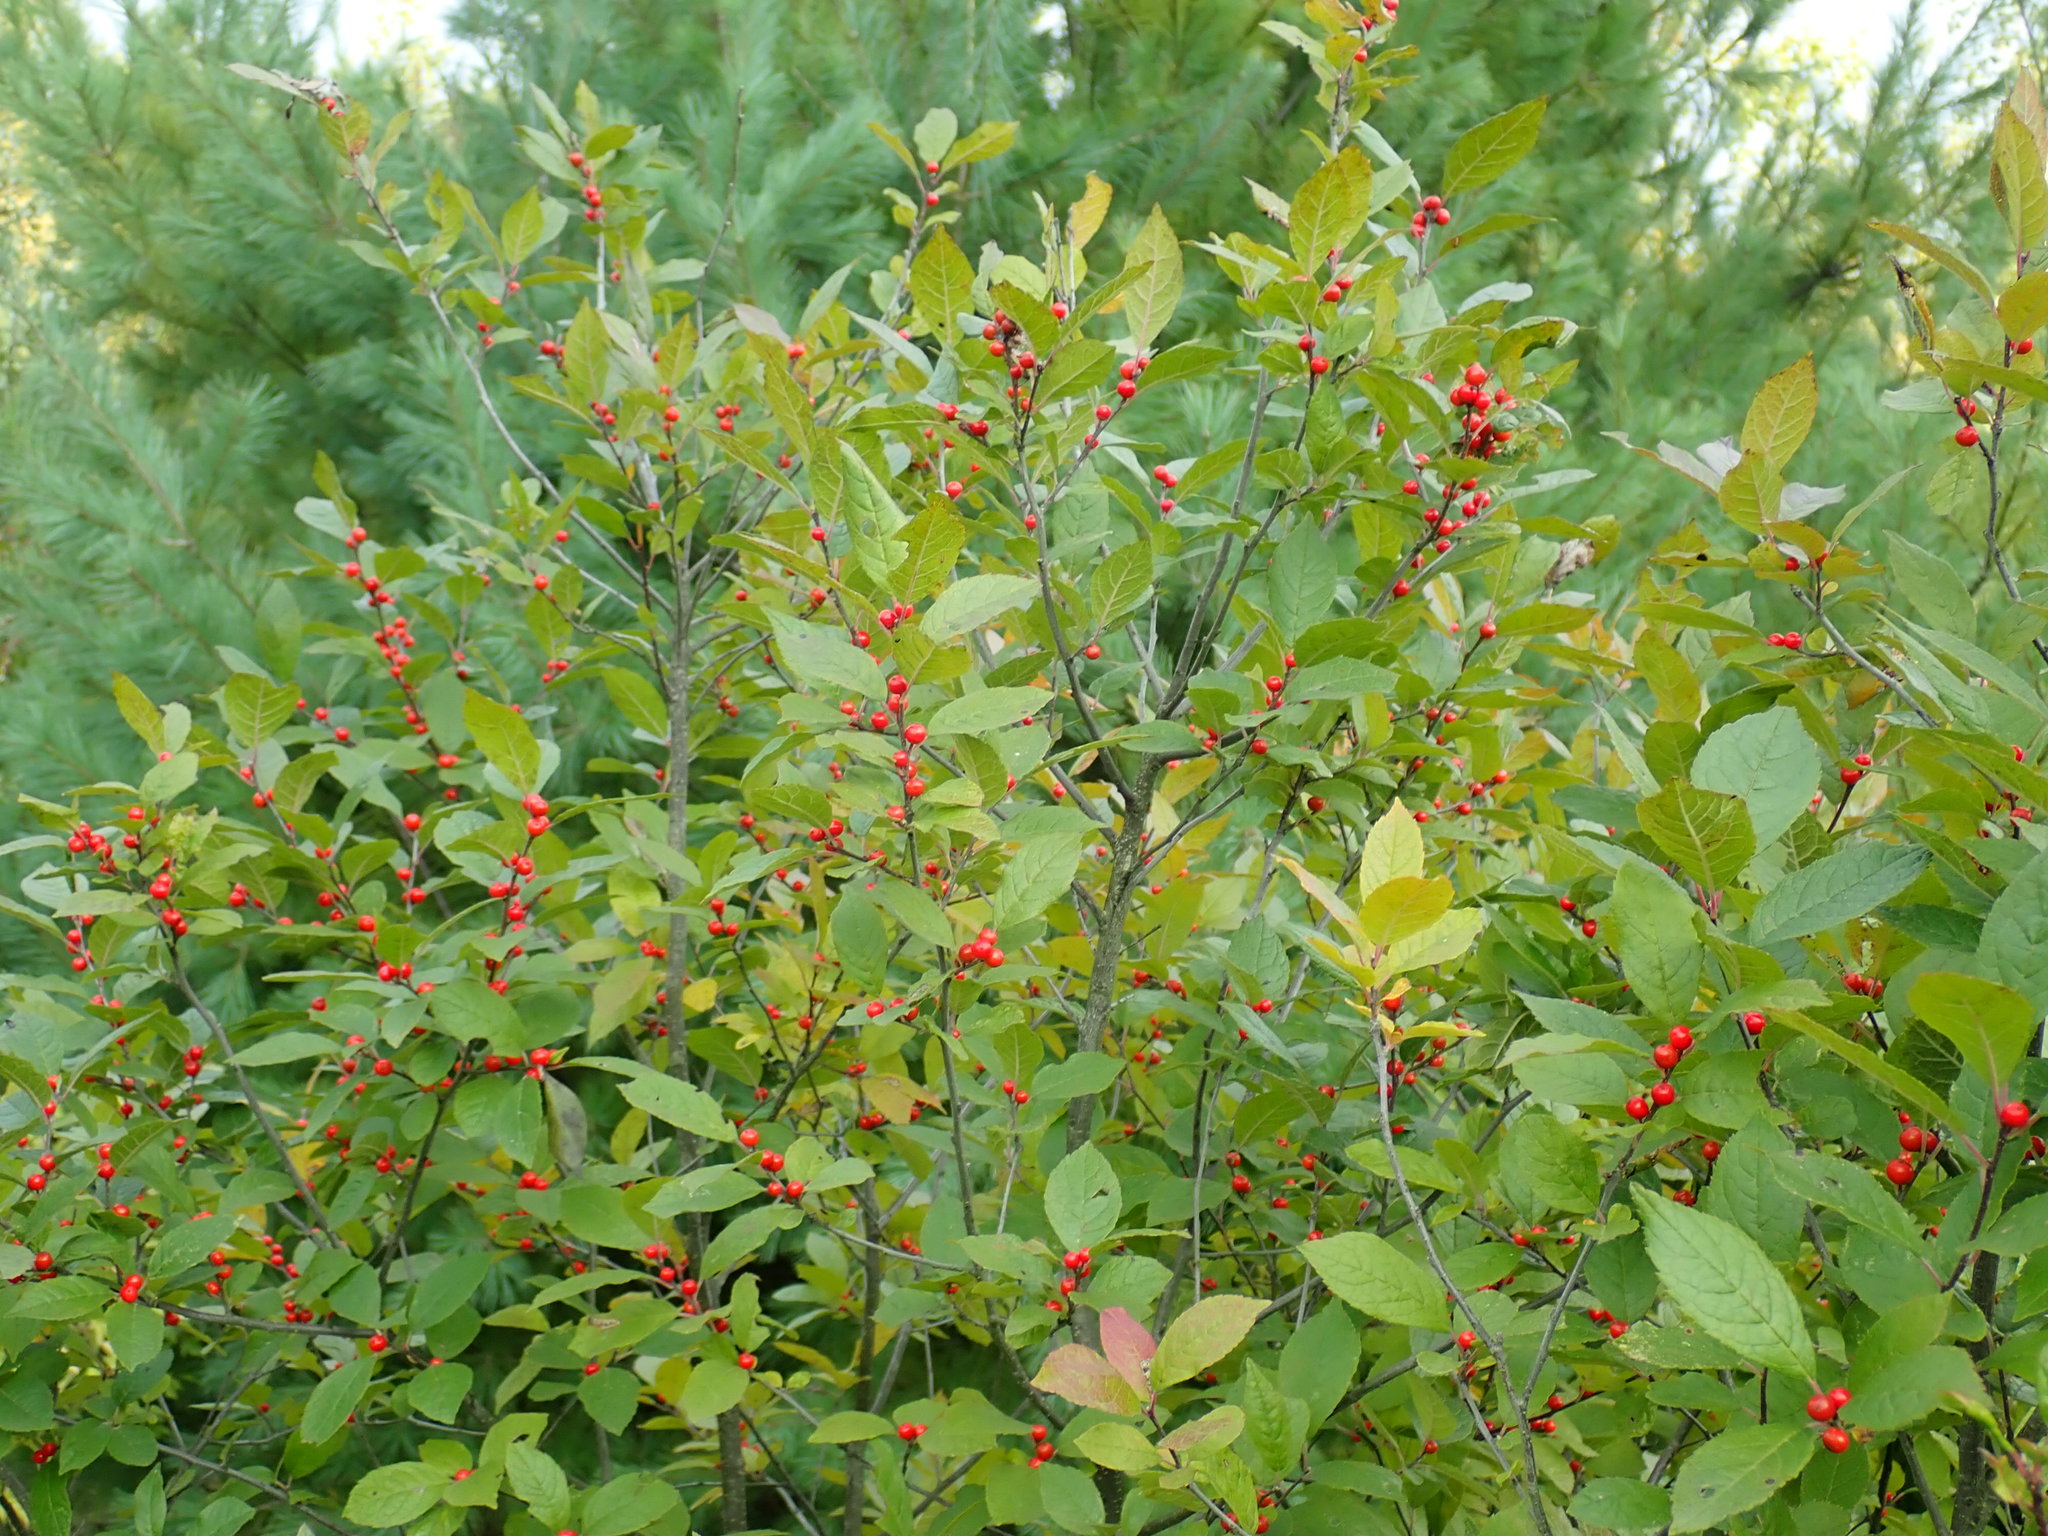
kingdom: Plantae
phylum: Tracheophyta
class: Magnoliopsida
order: Aquifoliales
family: Aquifoliaceae
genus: Ilex
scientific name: Ilex verticillata
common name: Virginia winterberry
